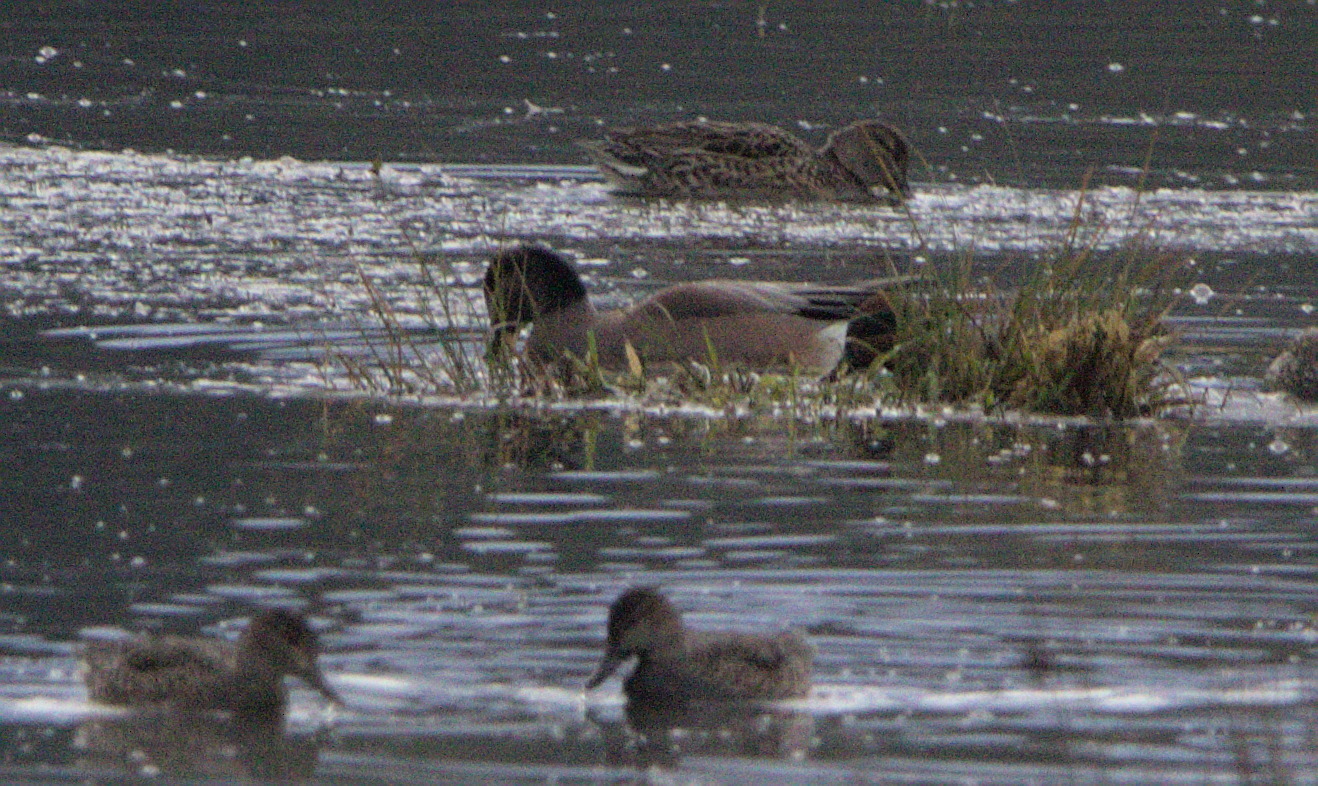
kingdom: Animalia
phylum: Chordata
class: Aves
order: Anseriformes
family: Anatidae
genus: Mareca
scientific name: Mareca americana
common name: American wigeon
